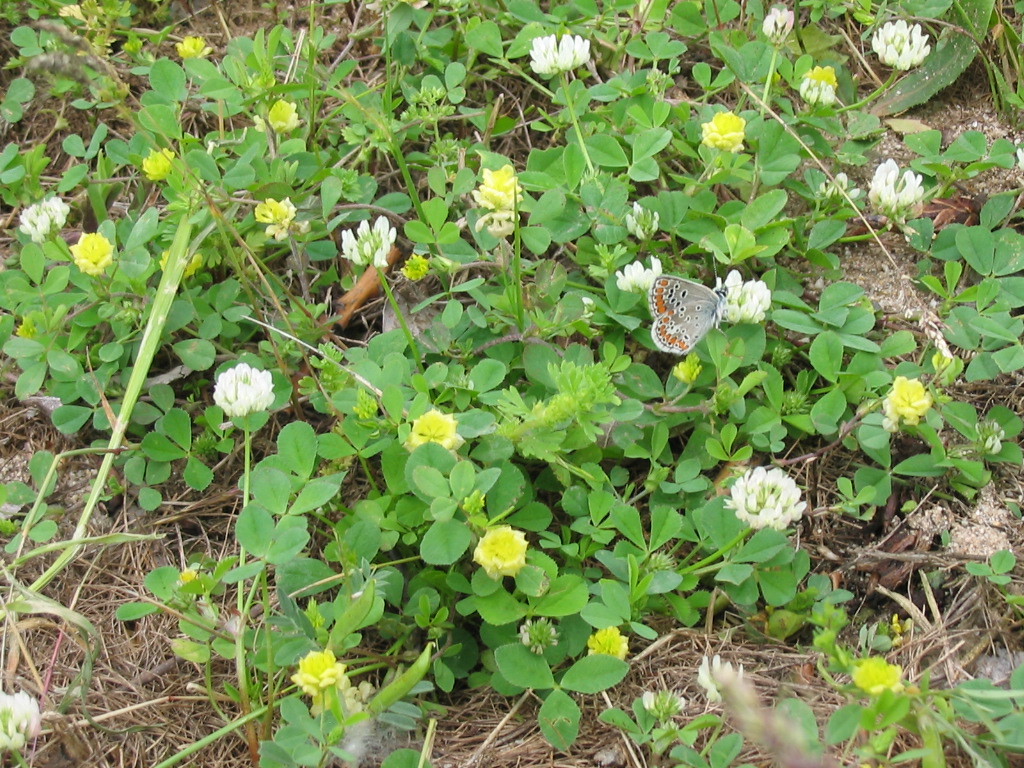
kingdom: Animalia
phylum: Arthropoda
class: Insecta
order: Lepidoptera
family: Lycaenidae
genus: Aricia
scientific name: Aricia agestis
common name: Brown argus
